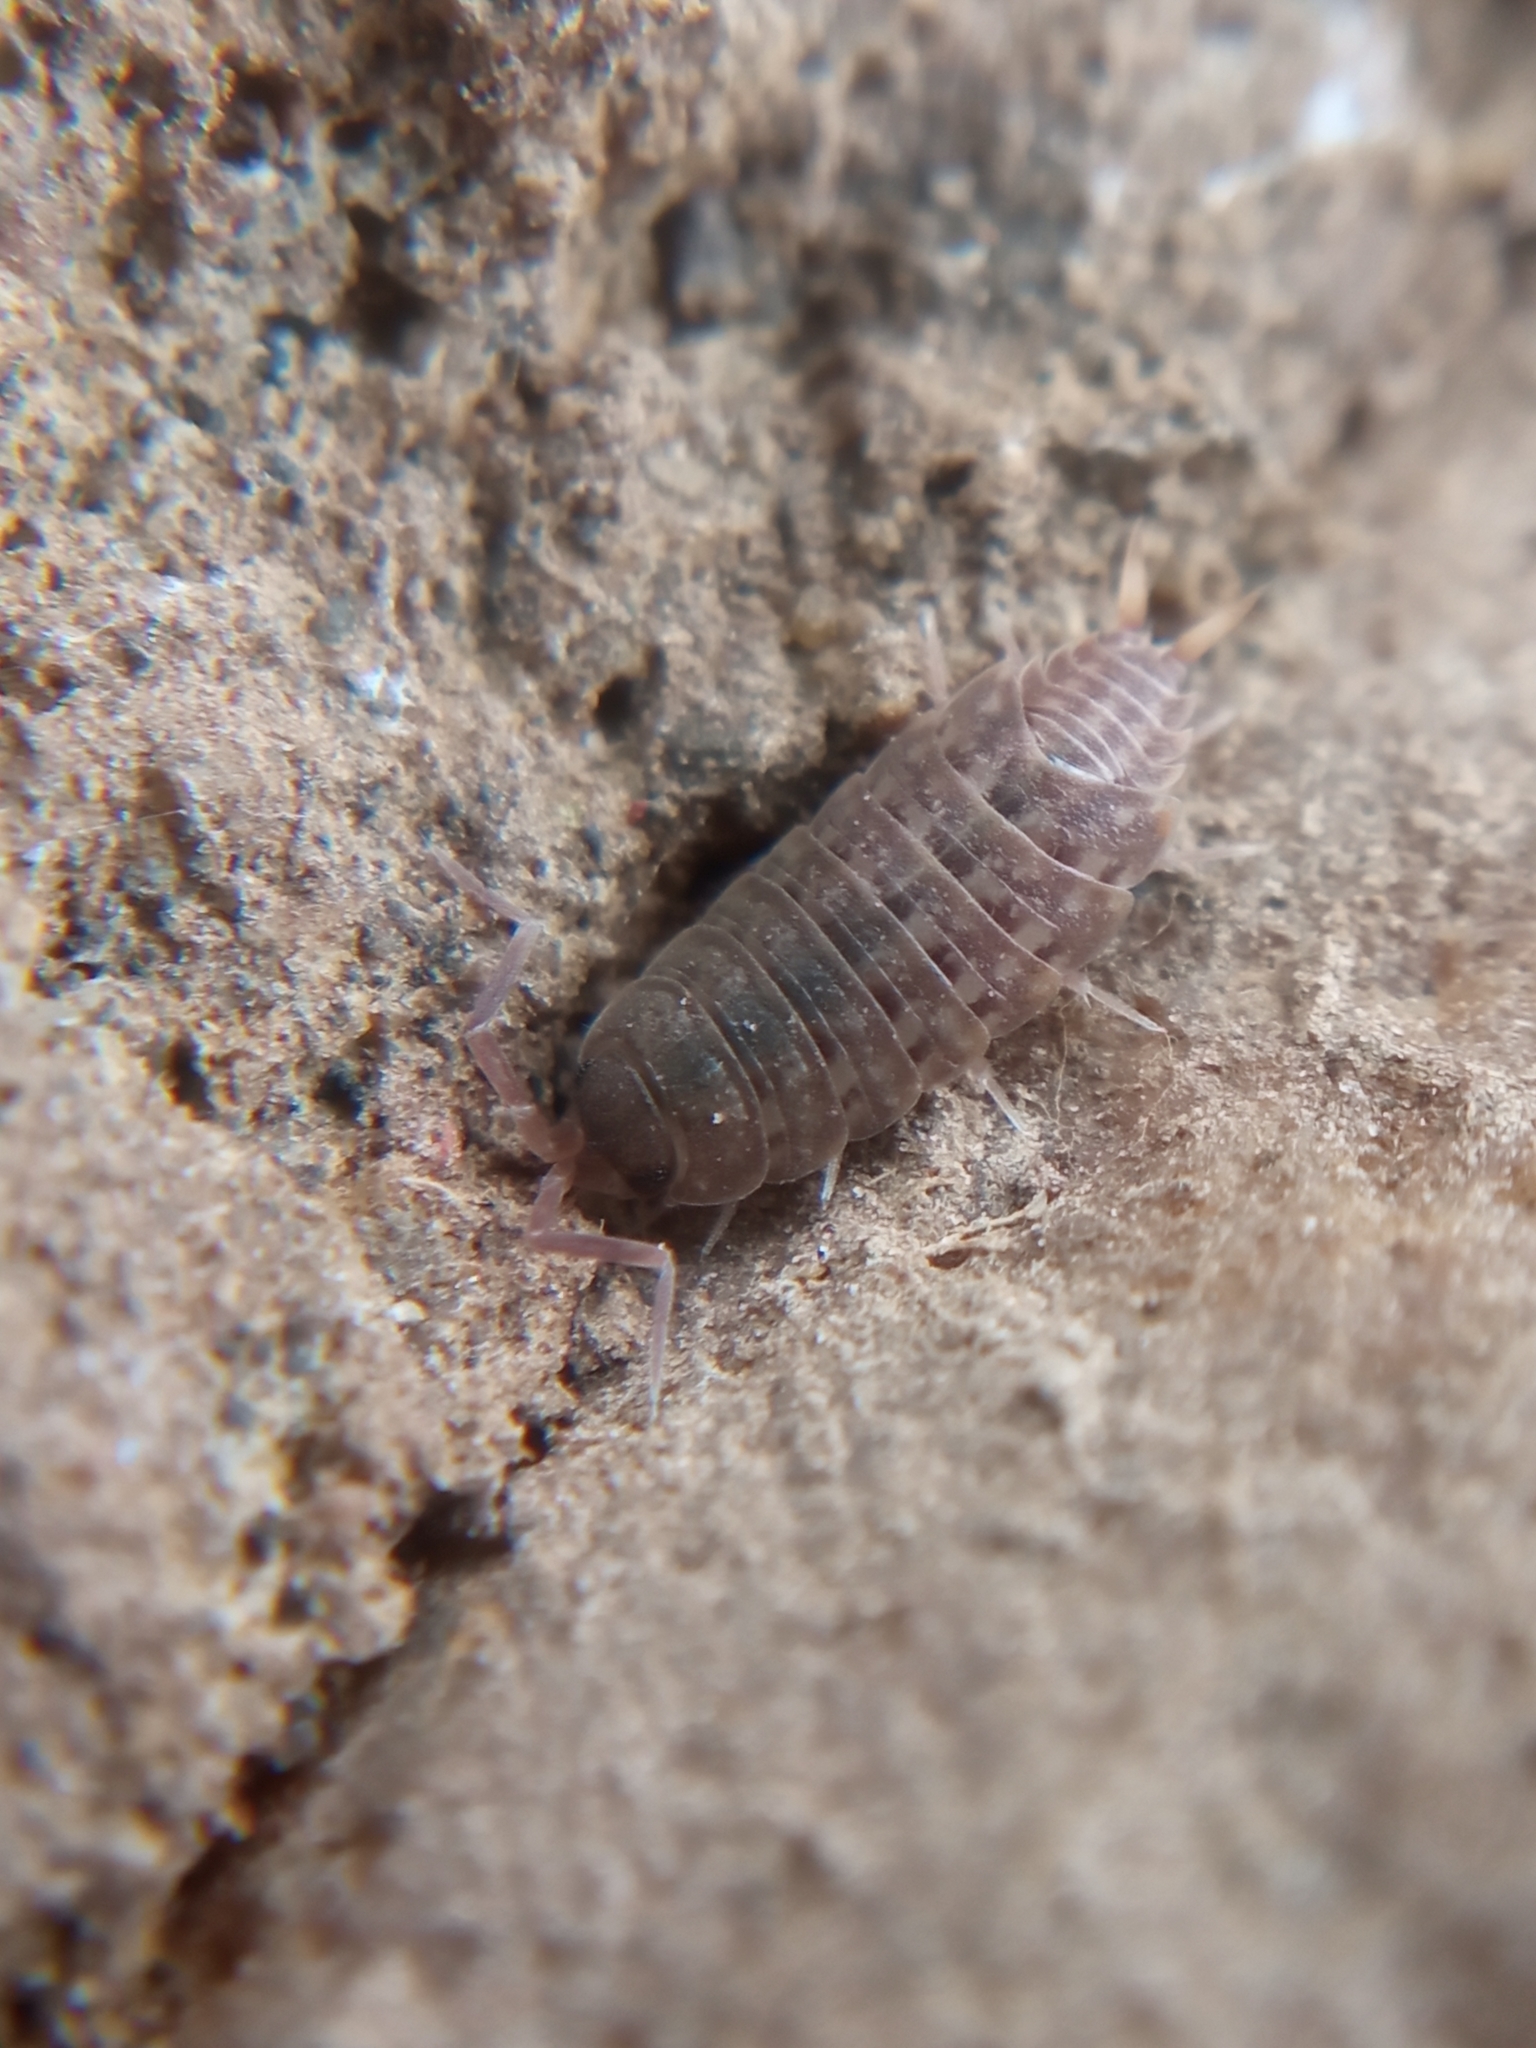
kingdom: Animalia
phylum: Arthropoda
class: Malacostraca
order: Isopoda
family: Agnaridae
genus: Orthometopon
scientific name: Orthometopon planum
